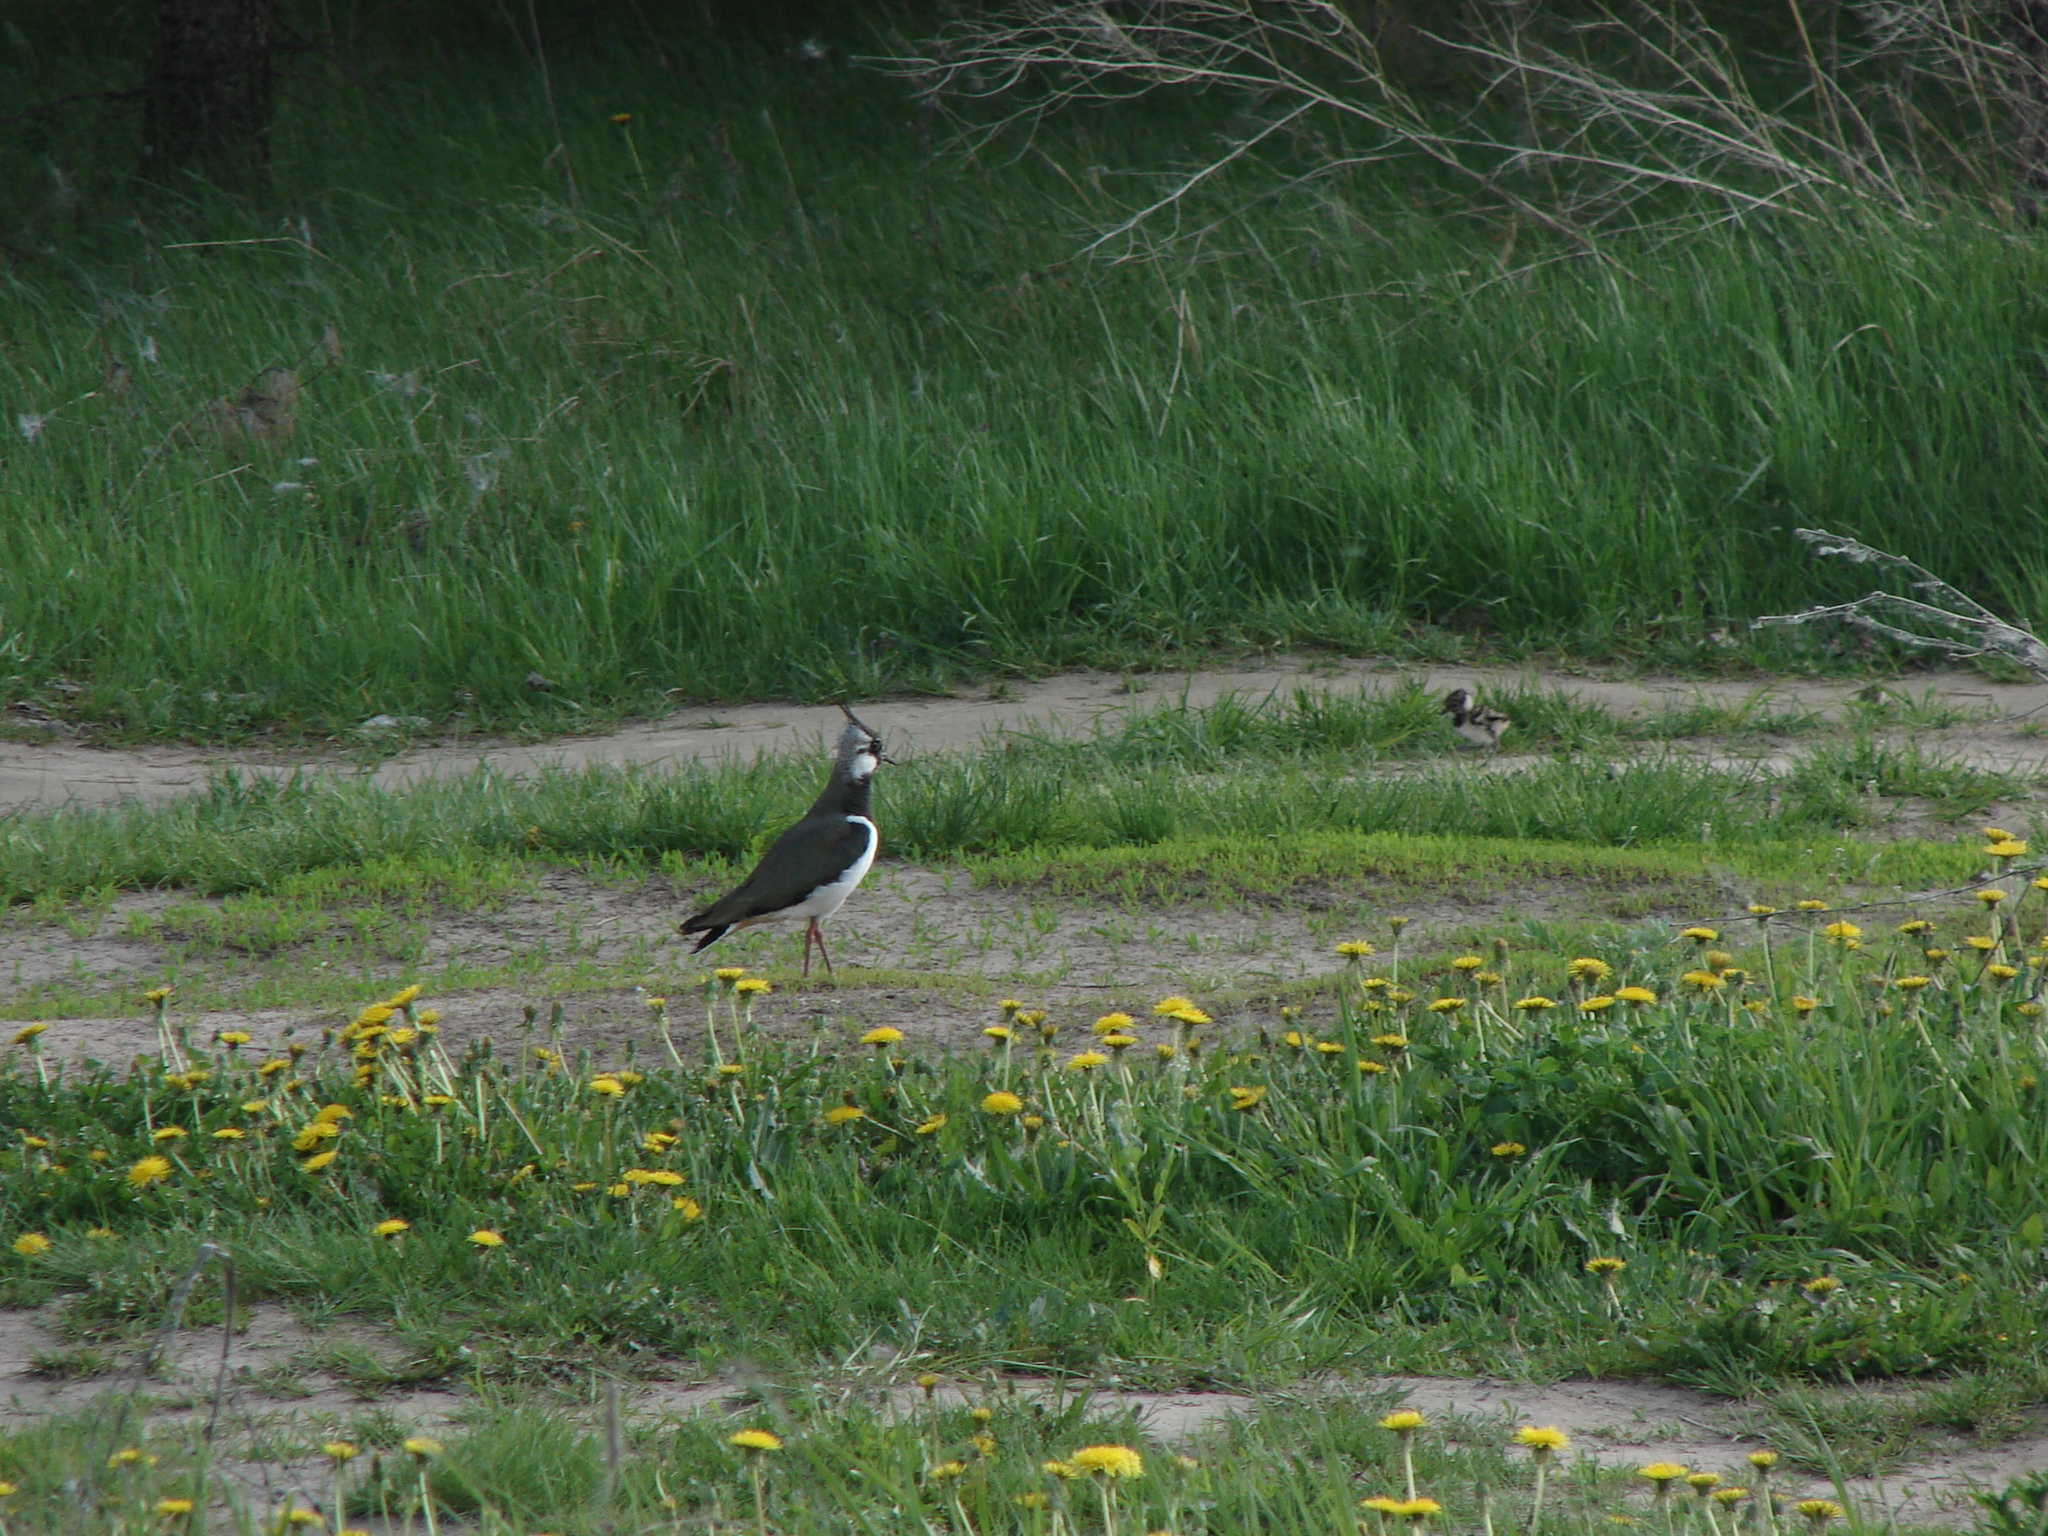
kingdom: Animalia
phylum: Chordata
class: Aves
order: Charadriiformes
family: Charadriidae
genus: Vanellus
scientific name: Vanellus vanellus
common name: Northern lapwing
